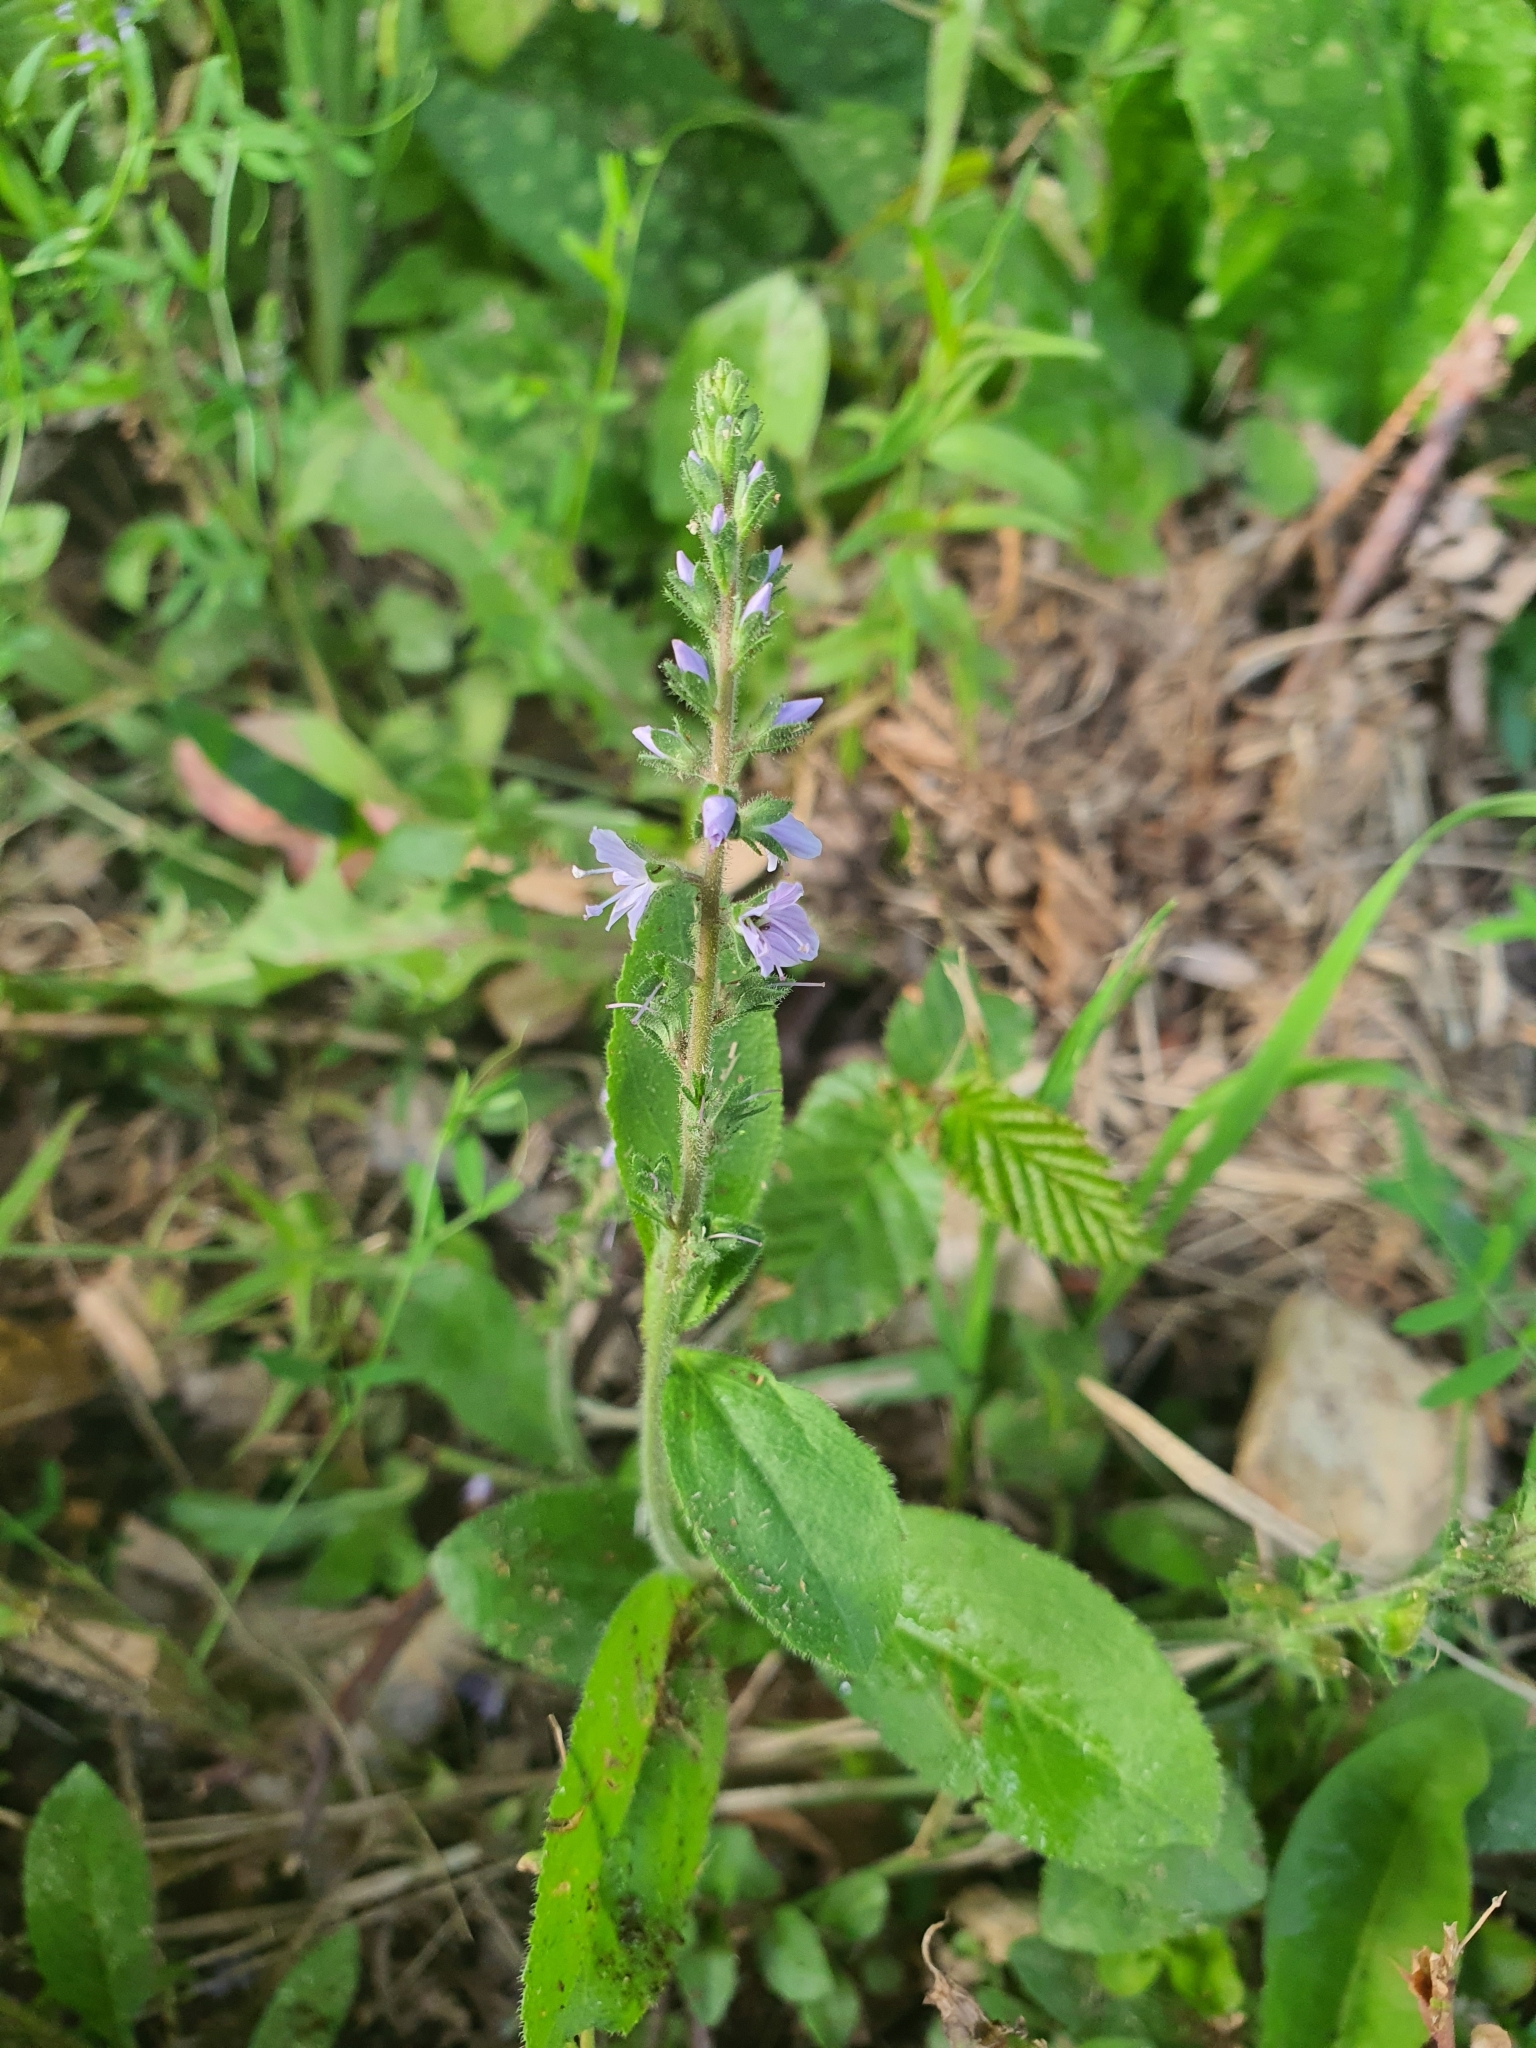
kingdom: Plantae
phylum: Tracheophyta
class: Magnoliopsida
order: Lamiales
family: Plantaginaceae
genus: Veronica
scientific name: Veronica officinalis
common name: Common speedwell
